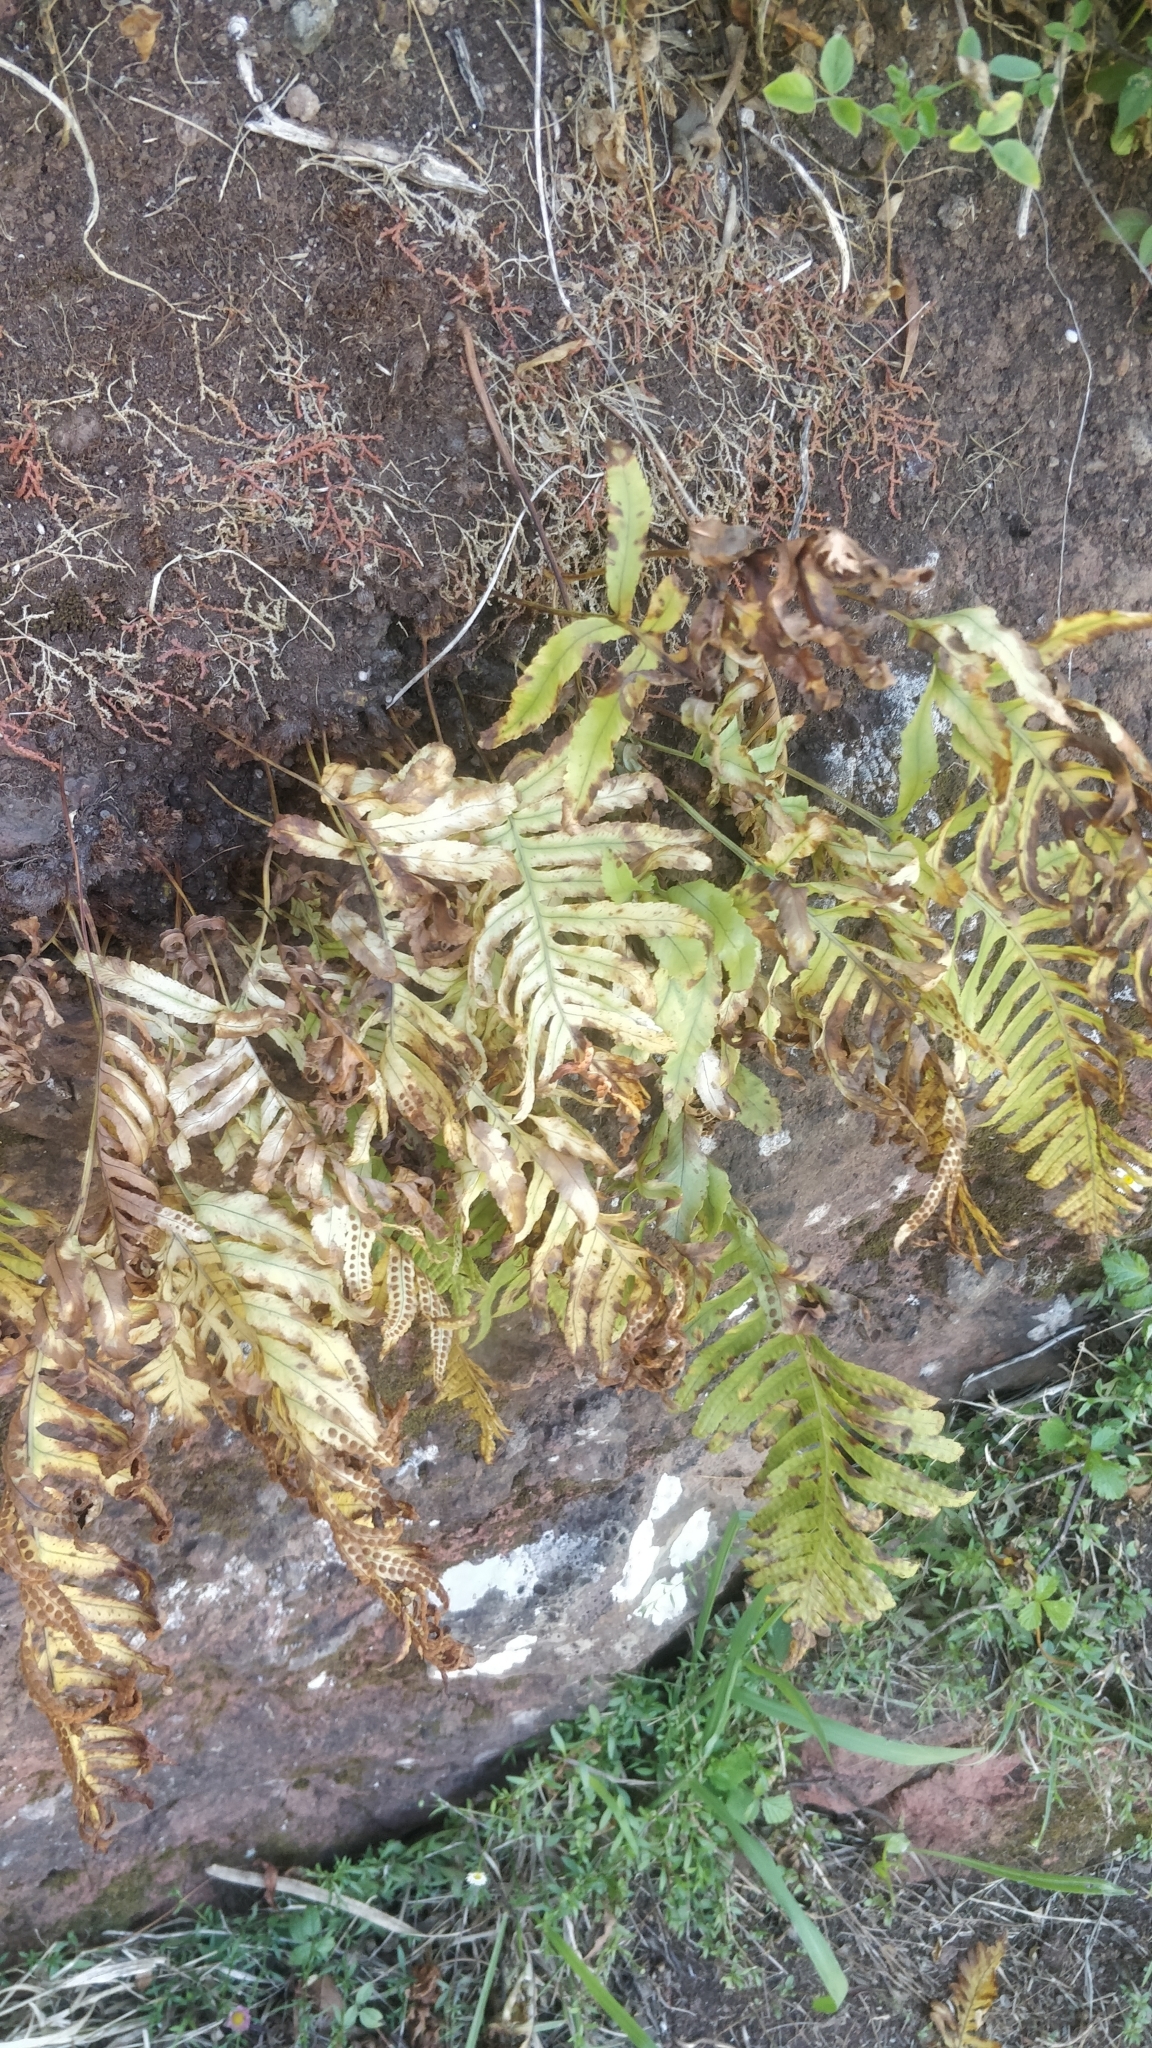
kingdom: Plantae
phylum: Tracheophyta
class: Polypodiopsida
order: Polypodiales
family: Polypodiaceae
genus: Polypodium
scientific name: Polypodium macaronesicum
